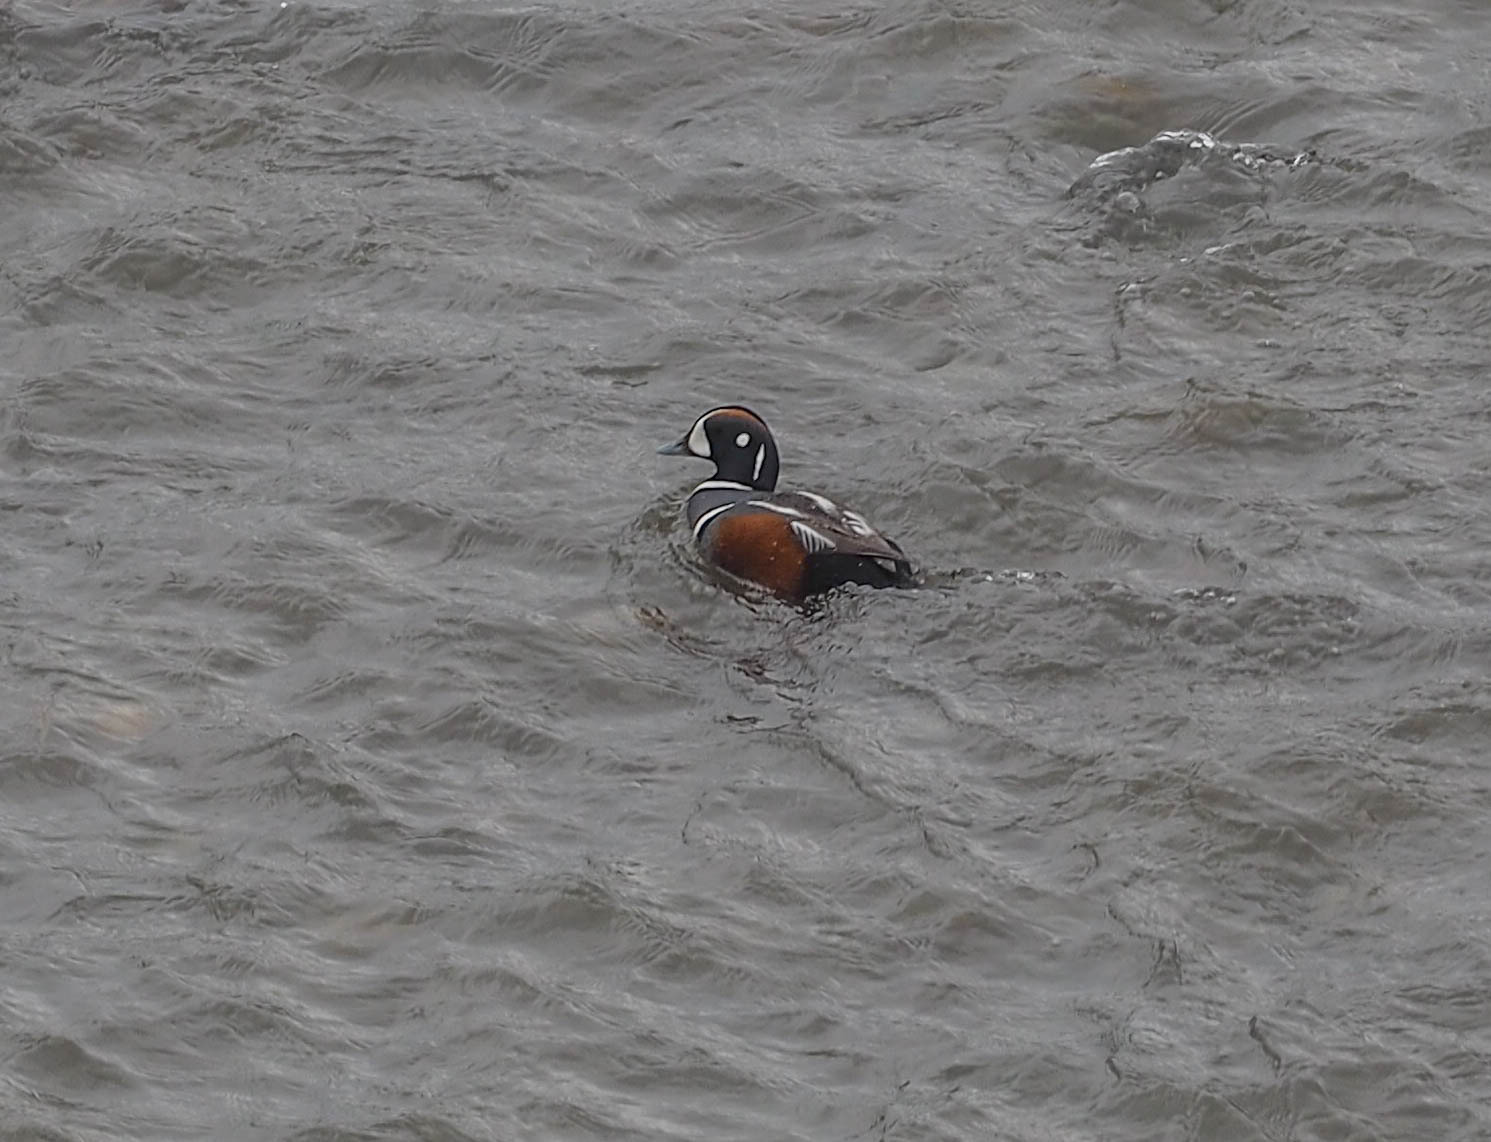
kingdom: Animalia
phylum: Chordata
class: Aves
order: Anseriformes
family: Anatidae
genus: Histrionicus
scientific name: Histrionicus histrionicus
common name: Harlequin duck
